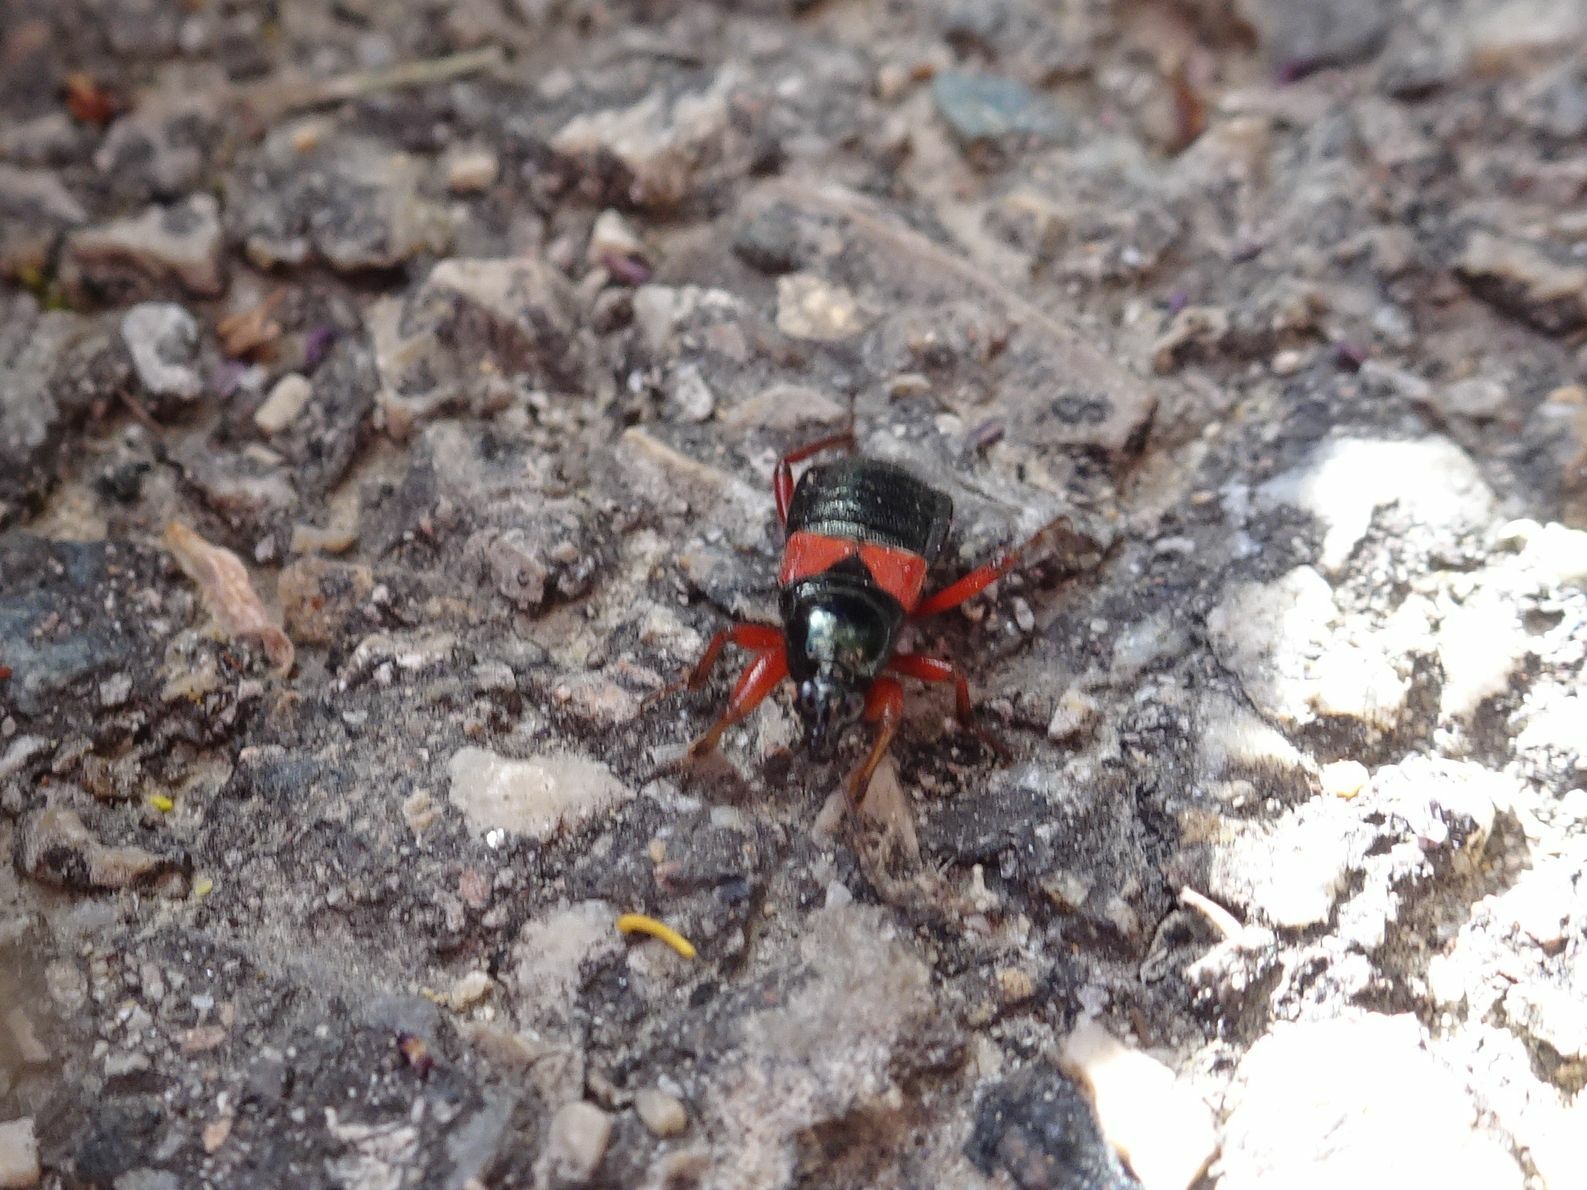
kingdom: Animalia
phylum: Arthropoda
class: Insecta
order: Hemiptera
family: Nabidae
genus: Prostemma
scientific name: Prostemma guttula
